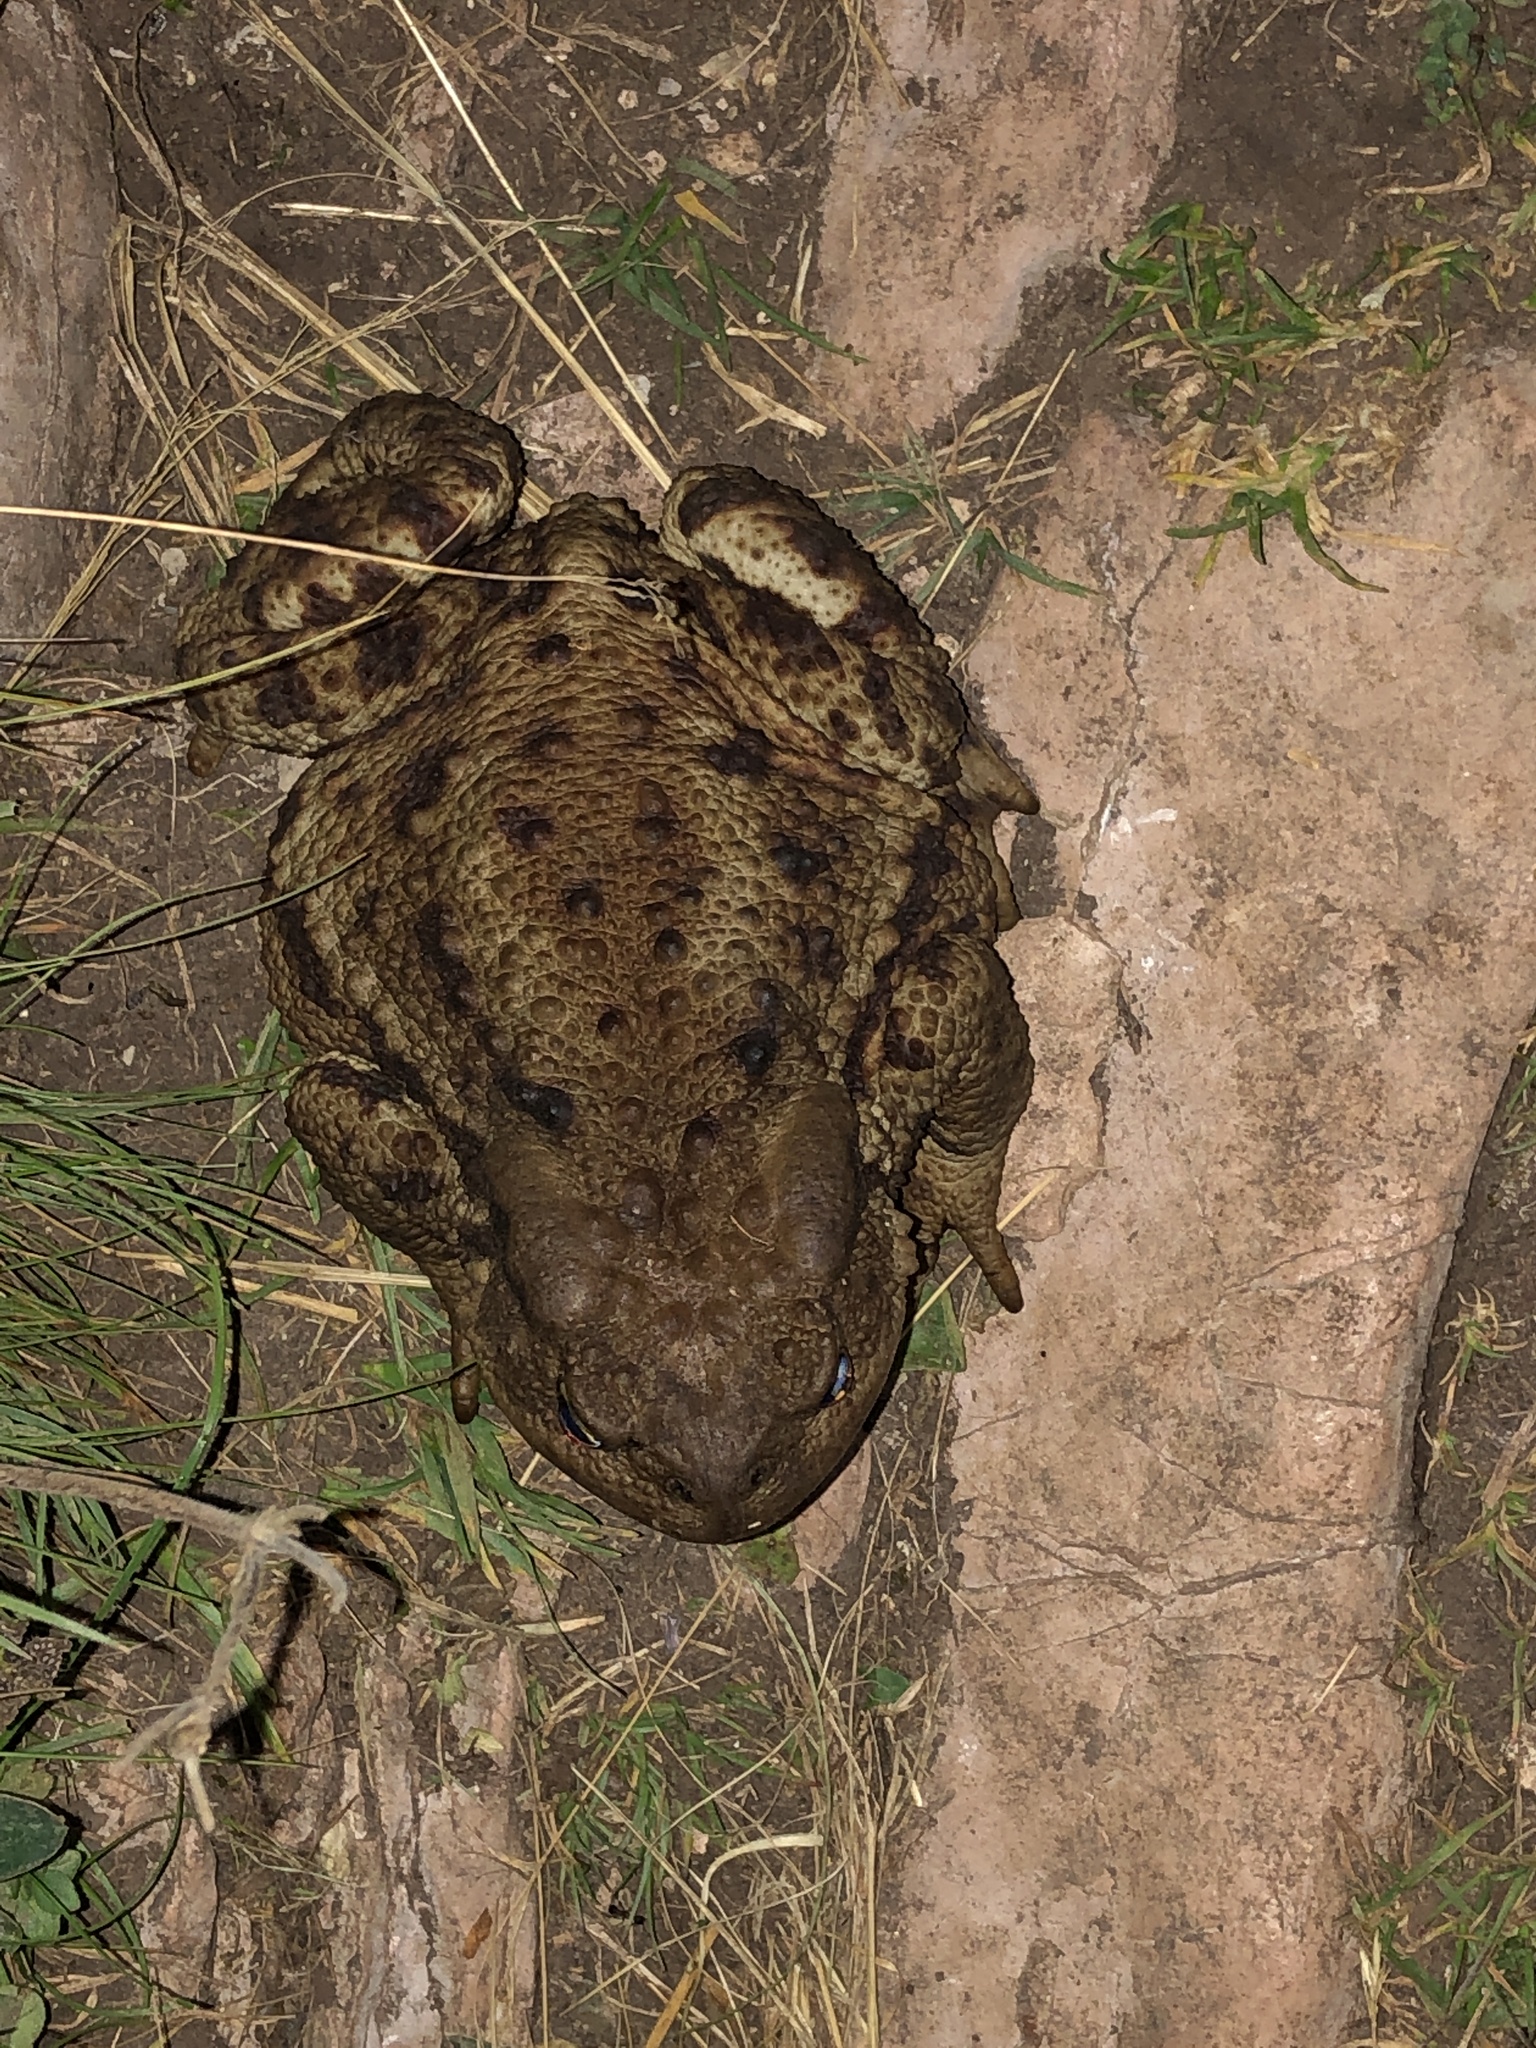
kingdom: Animalia
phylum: Chordata
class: Amphibia
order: Anura
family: Bufonidae
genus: Bufo
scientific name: Bufo bufo
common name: Common toad
